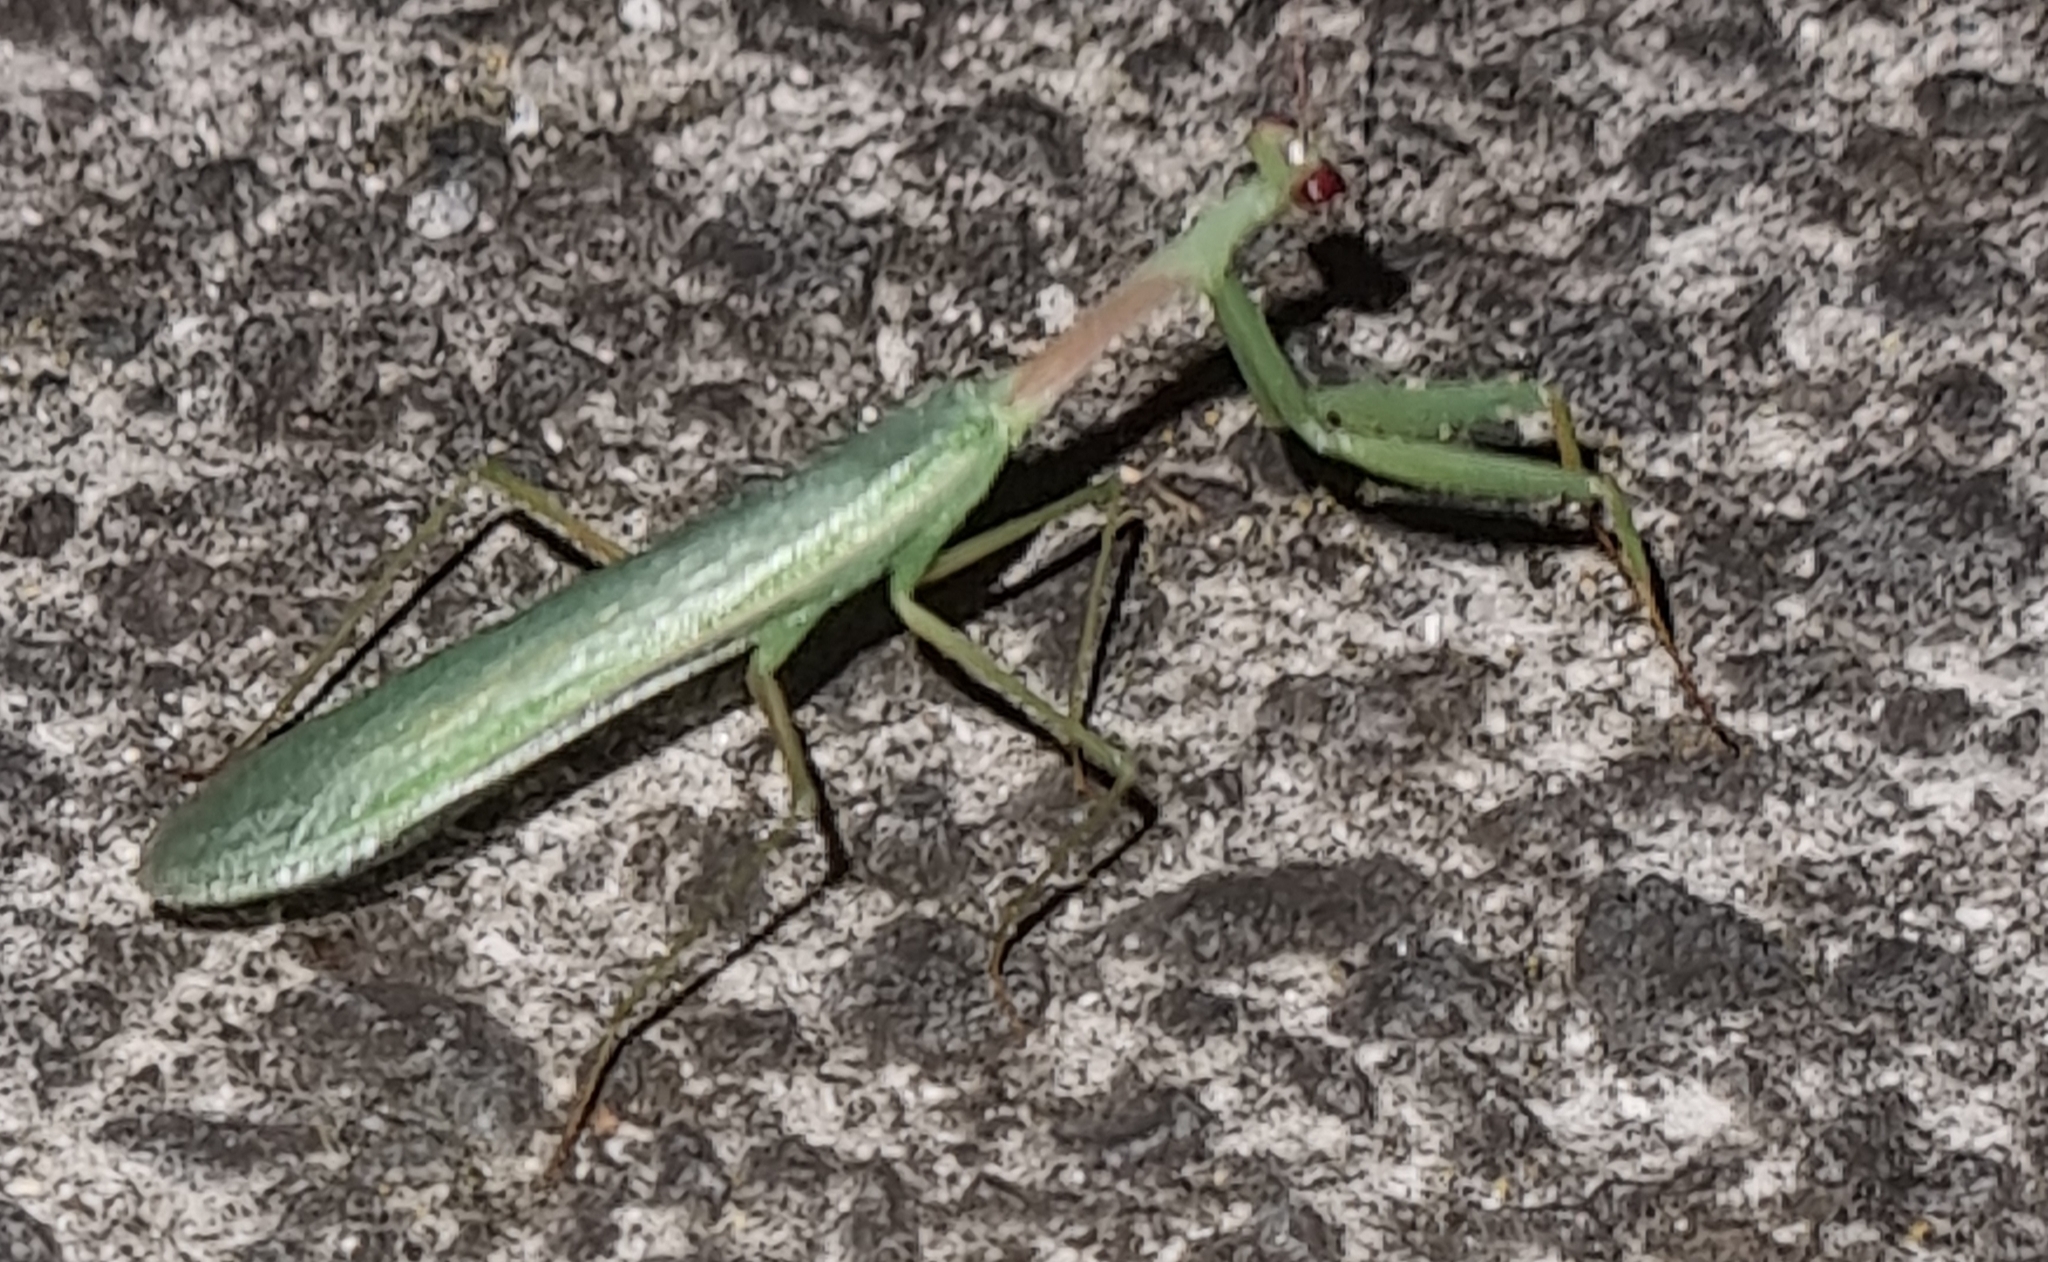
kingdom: Animalia
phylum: Arthropoda
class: Insecta
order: Mantodea
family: Miomantidae
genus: Miomantis
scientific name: Miomantis caffra
